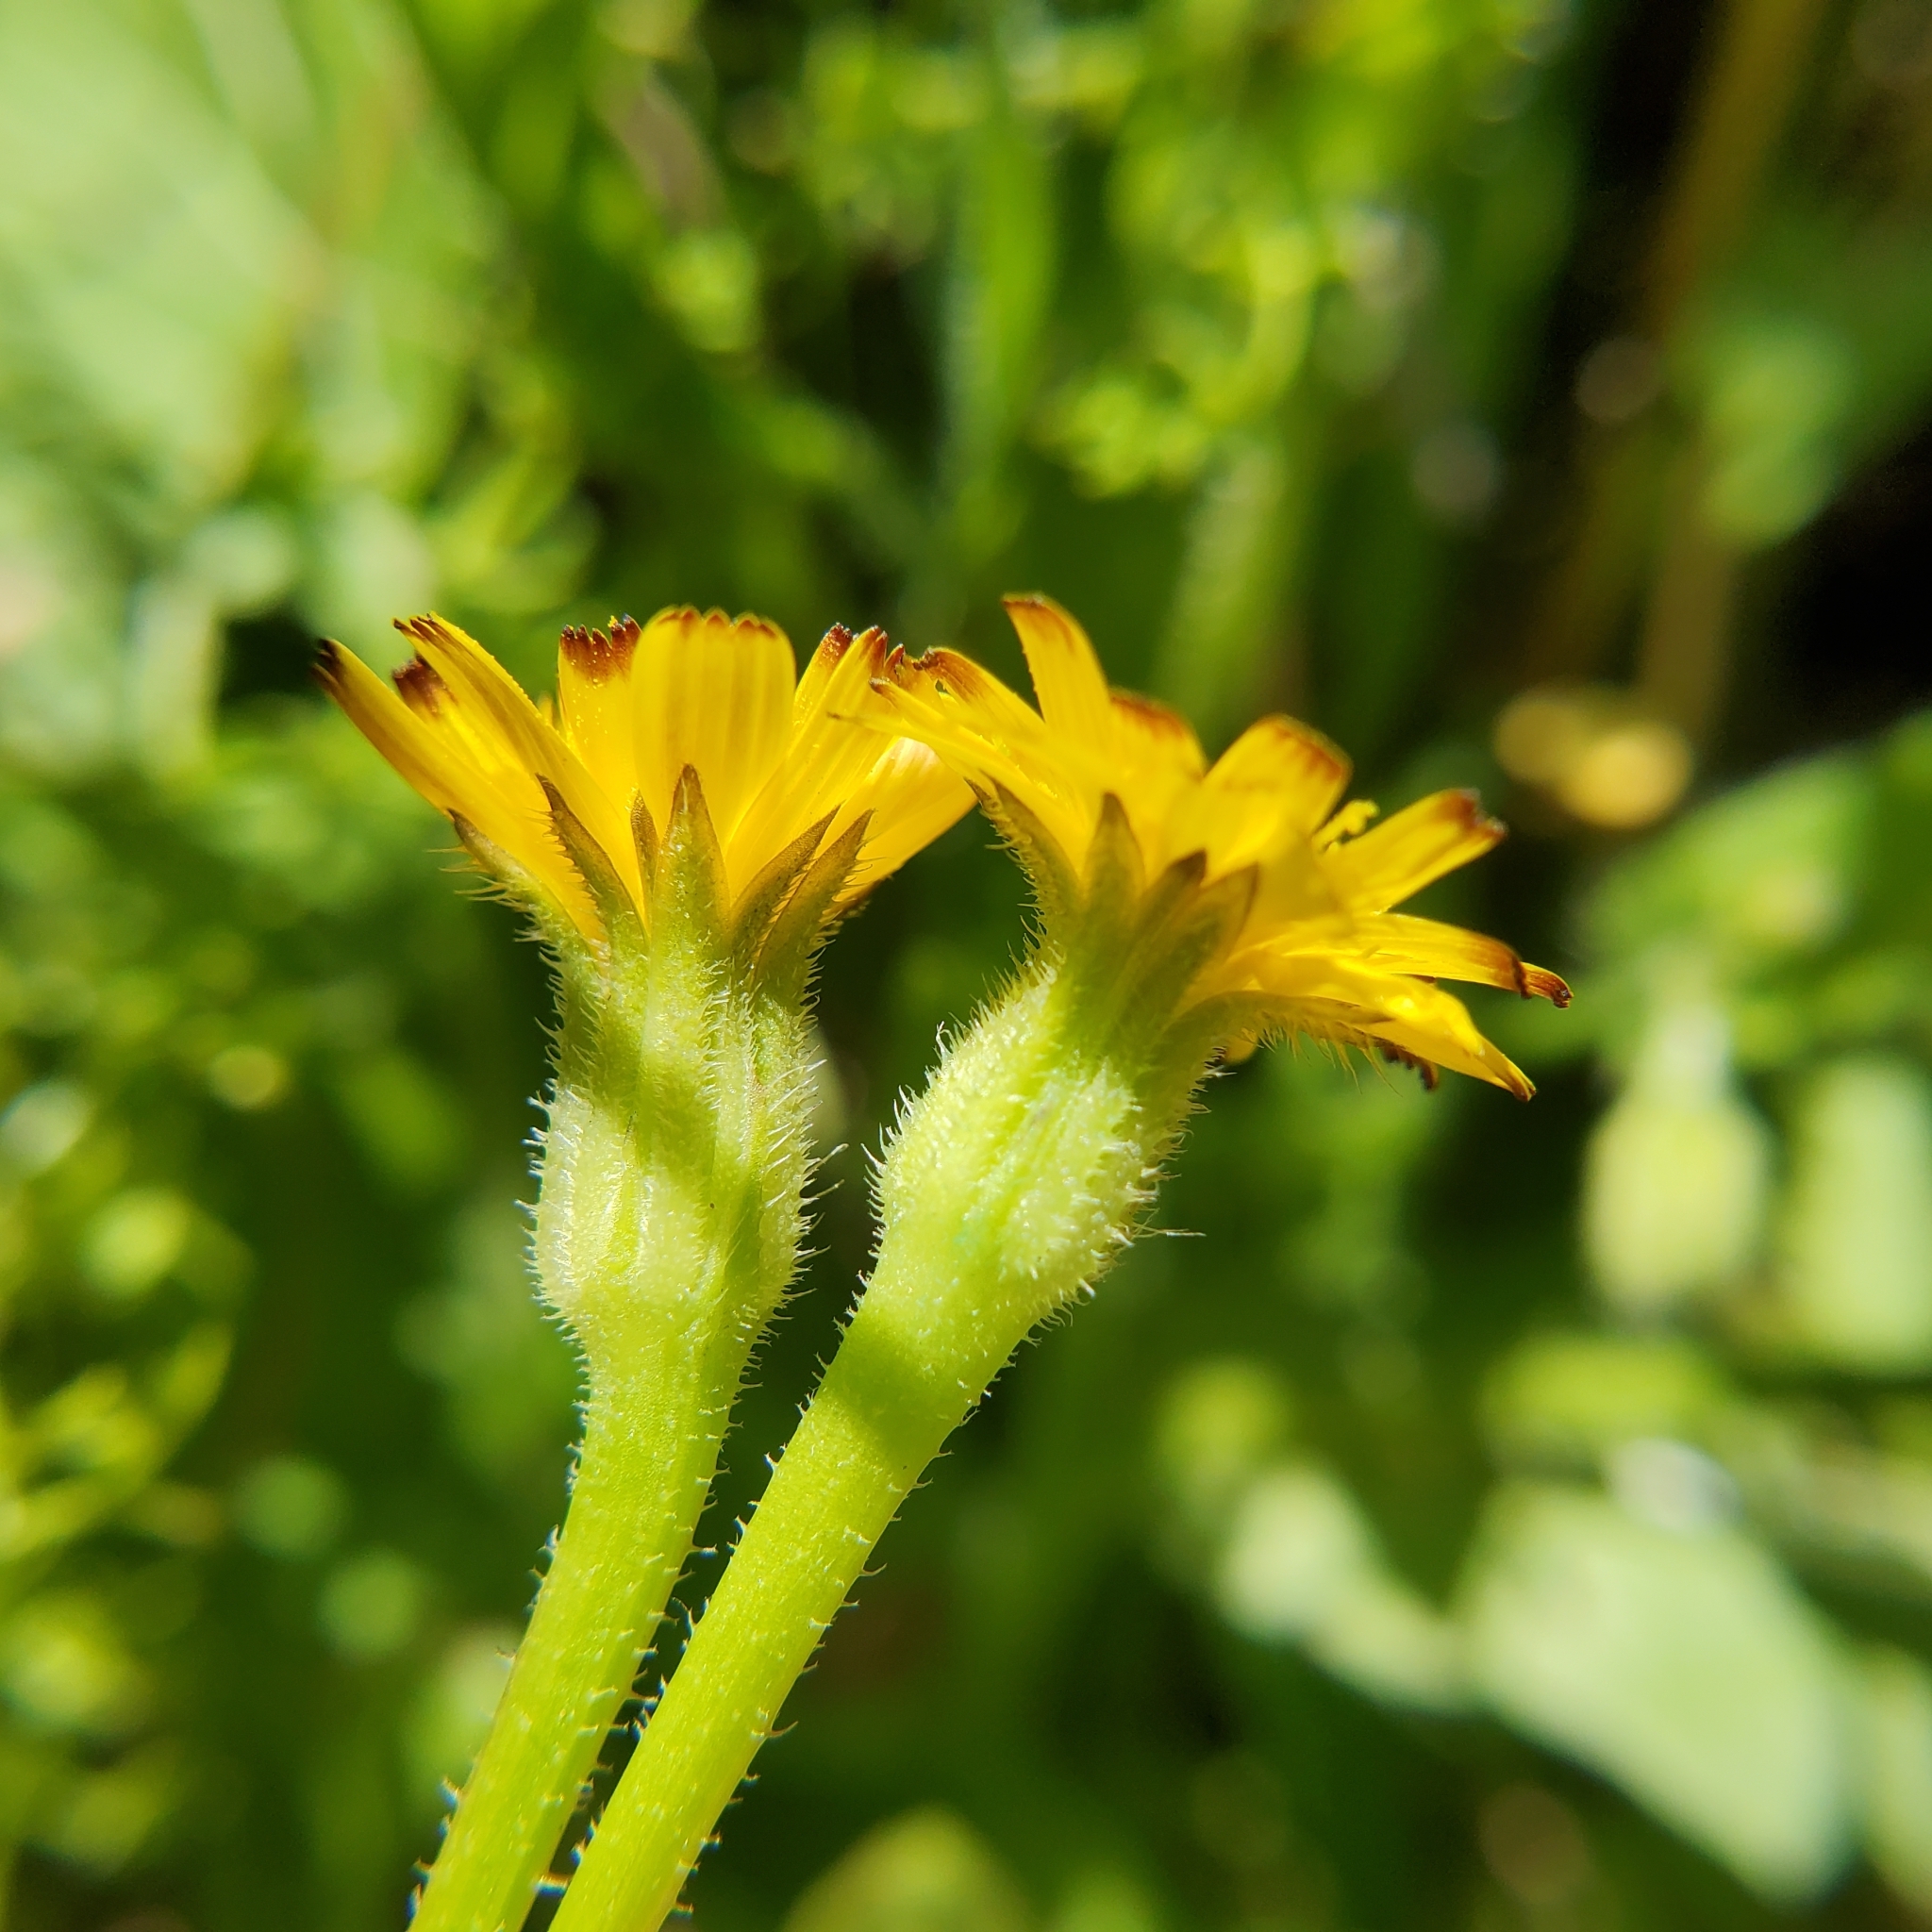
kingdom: Plantae
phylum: Tracheophyta
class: Magnoliopsida
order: Asterales
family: Asteraceae
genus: Hedypnois
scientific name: Hedypnois rhagadioloides
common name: Cretan weed
